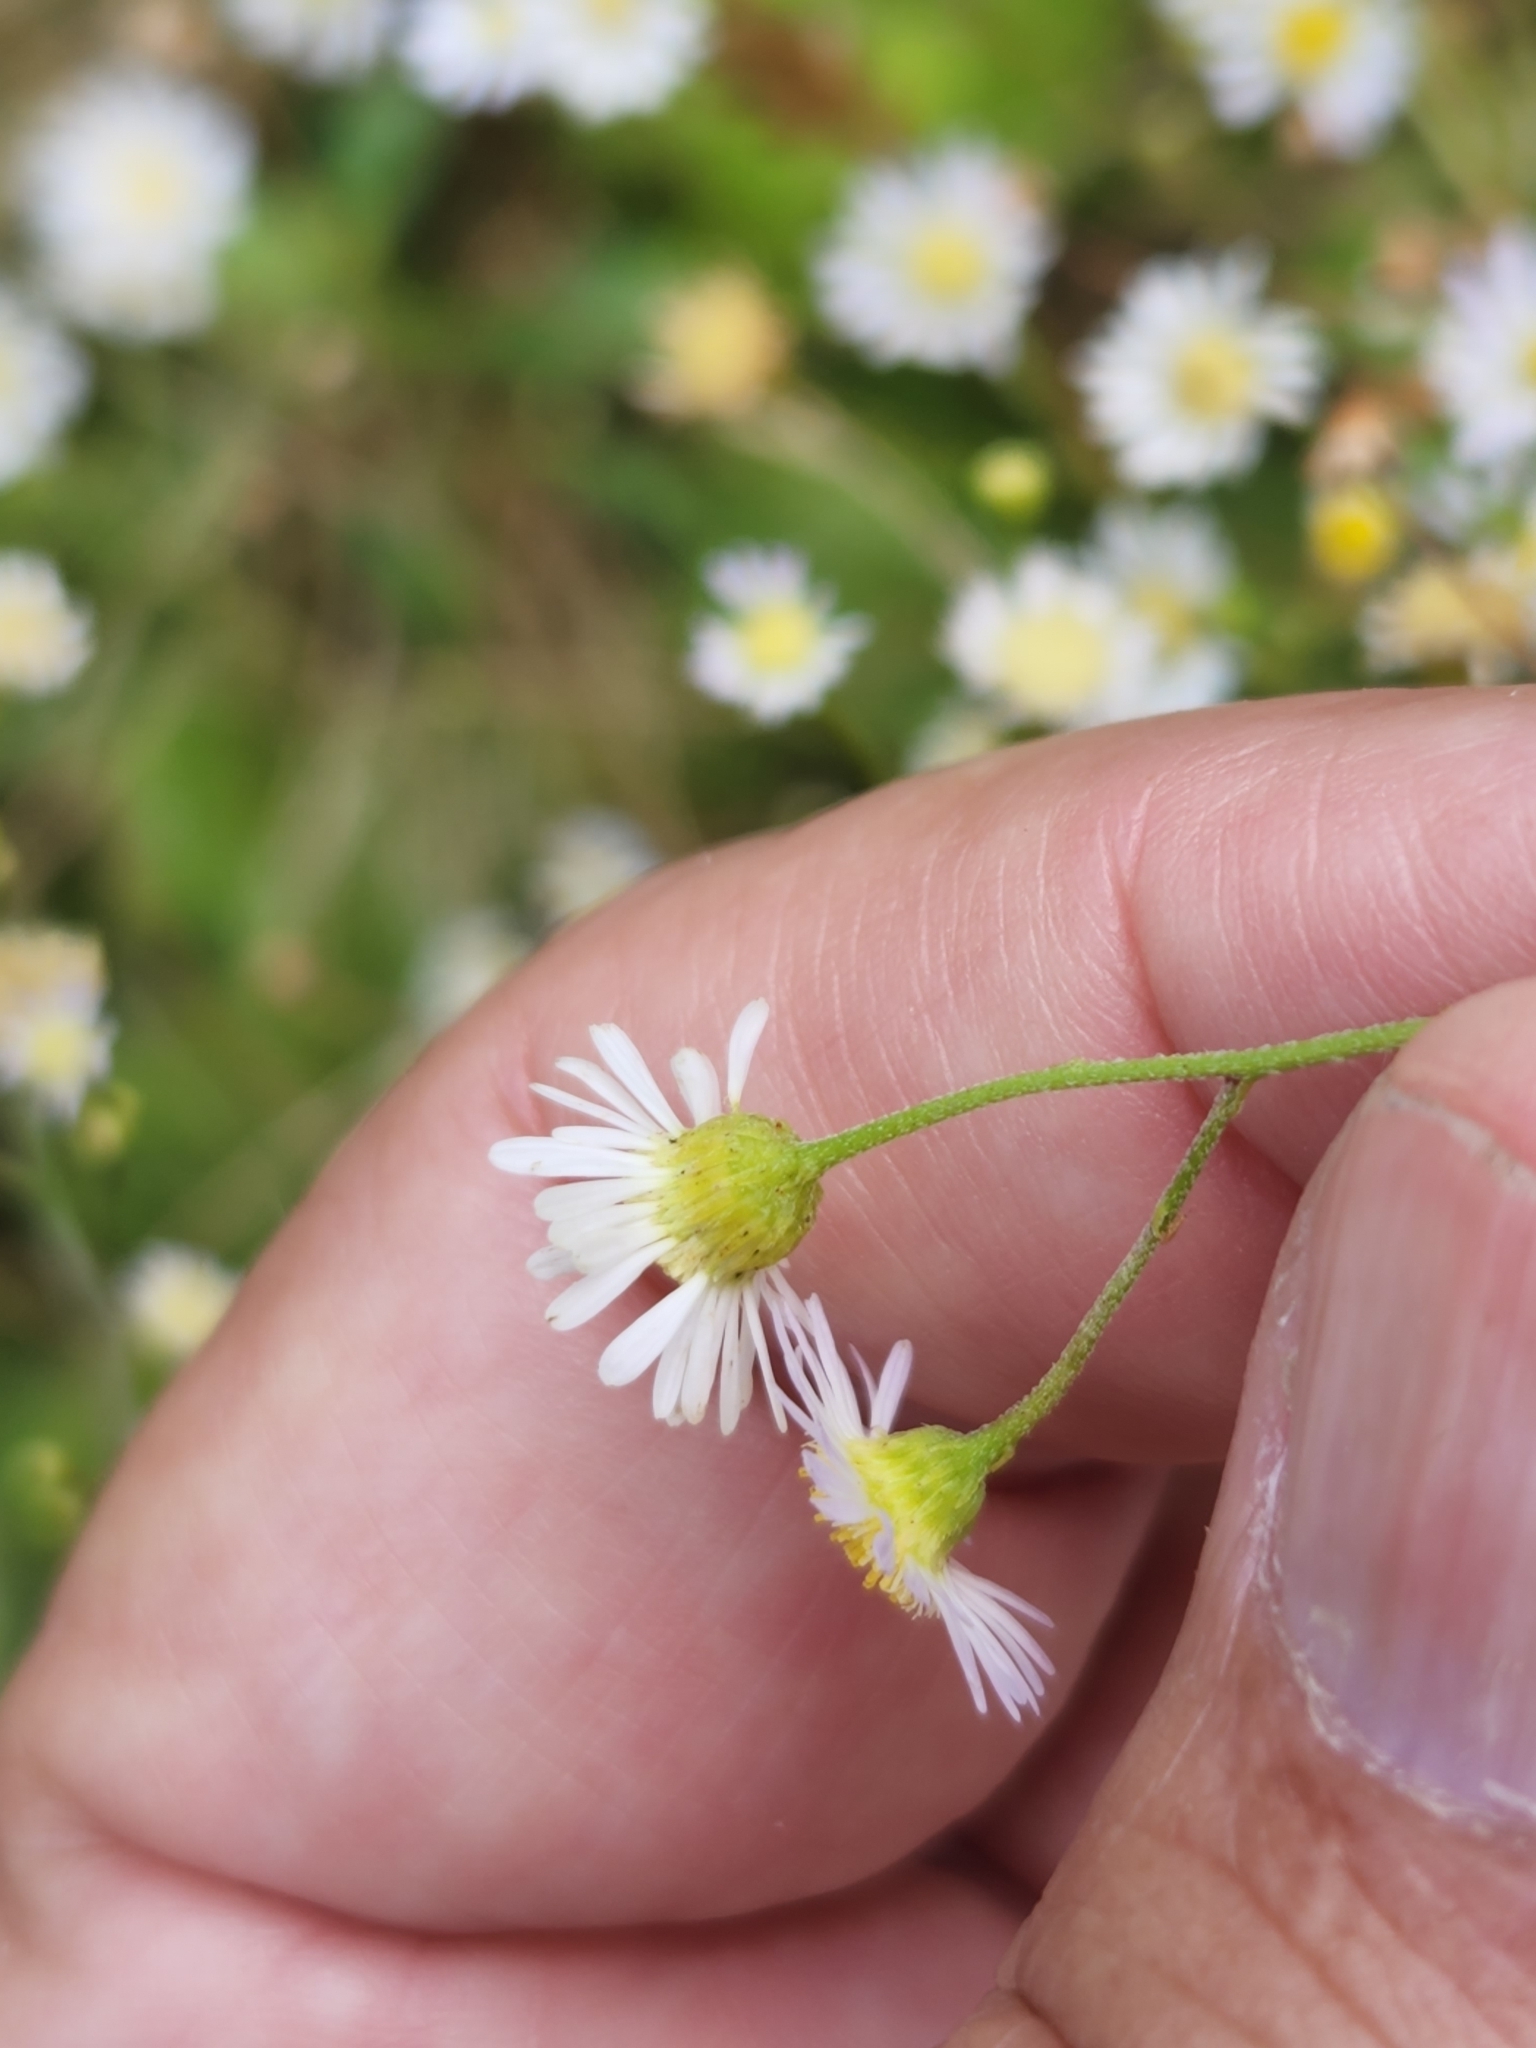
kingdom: Plantae
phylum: Tracheophyta
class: Magnoliopsida
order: Asterales
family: Asteraceae
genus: Erigeron
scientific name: Erigeron strigosus
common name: Common eastern fleabane
